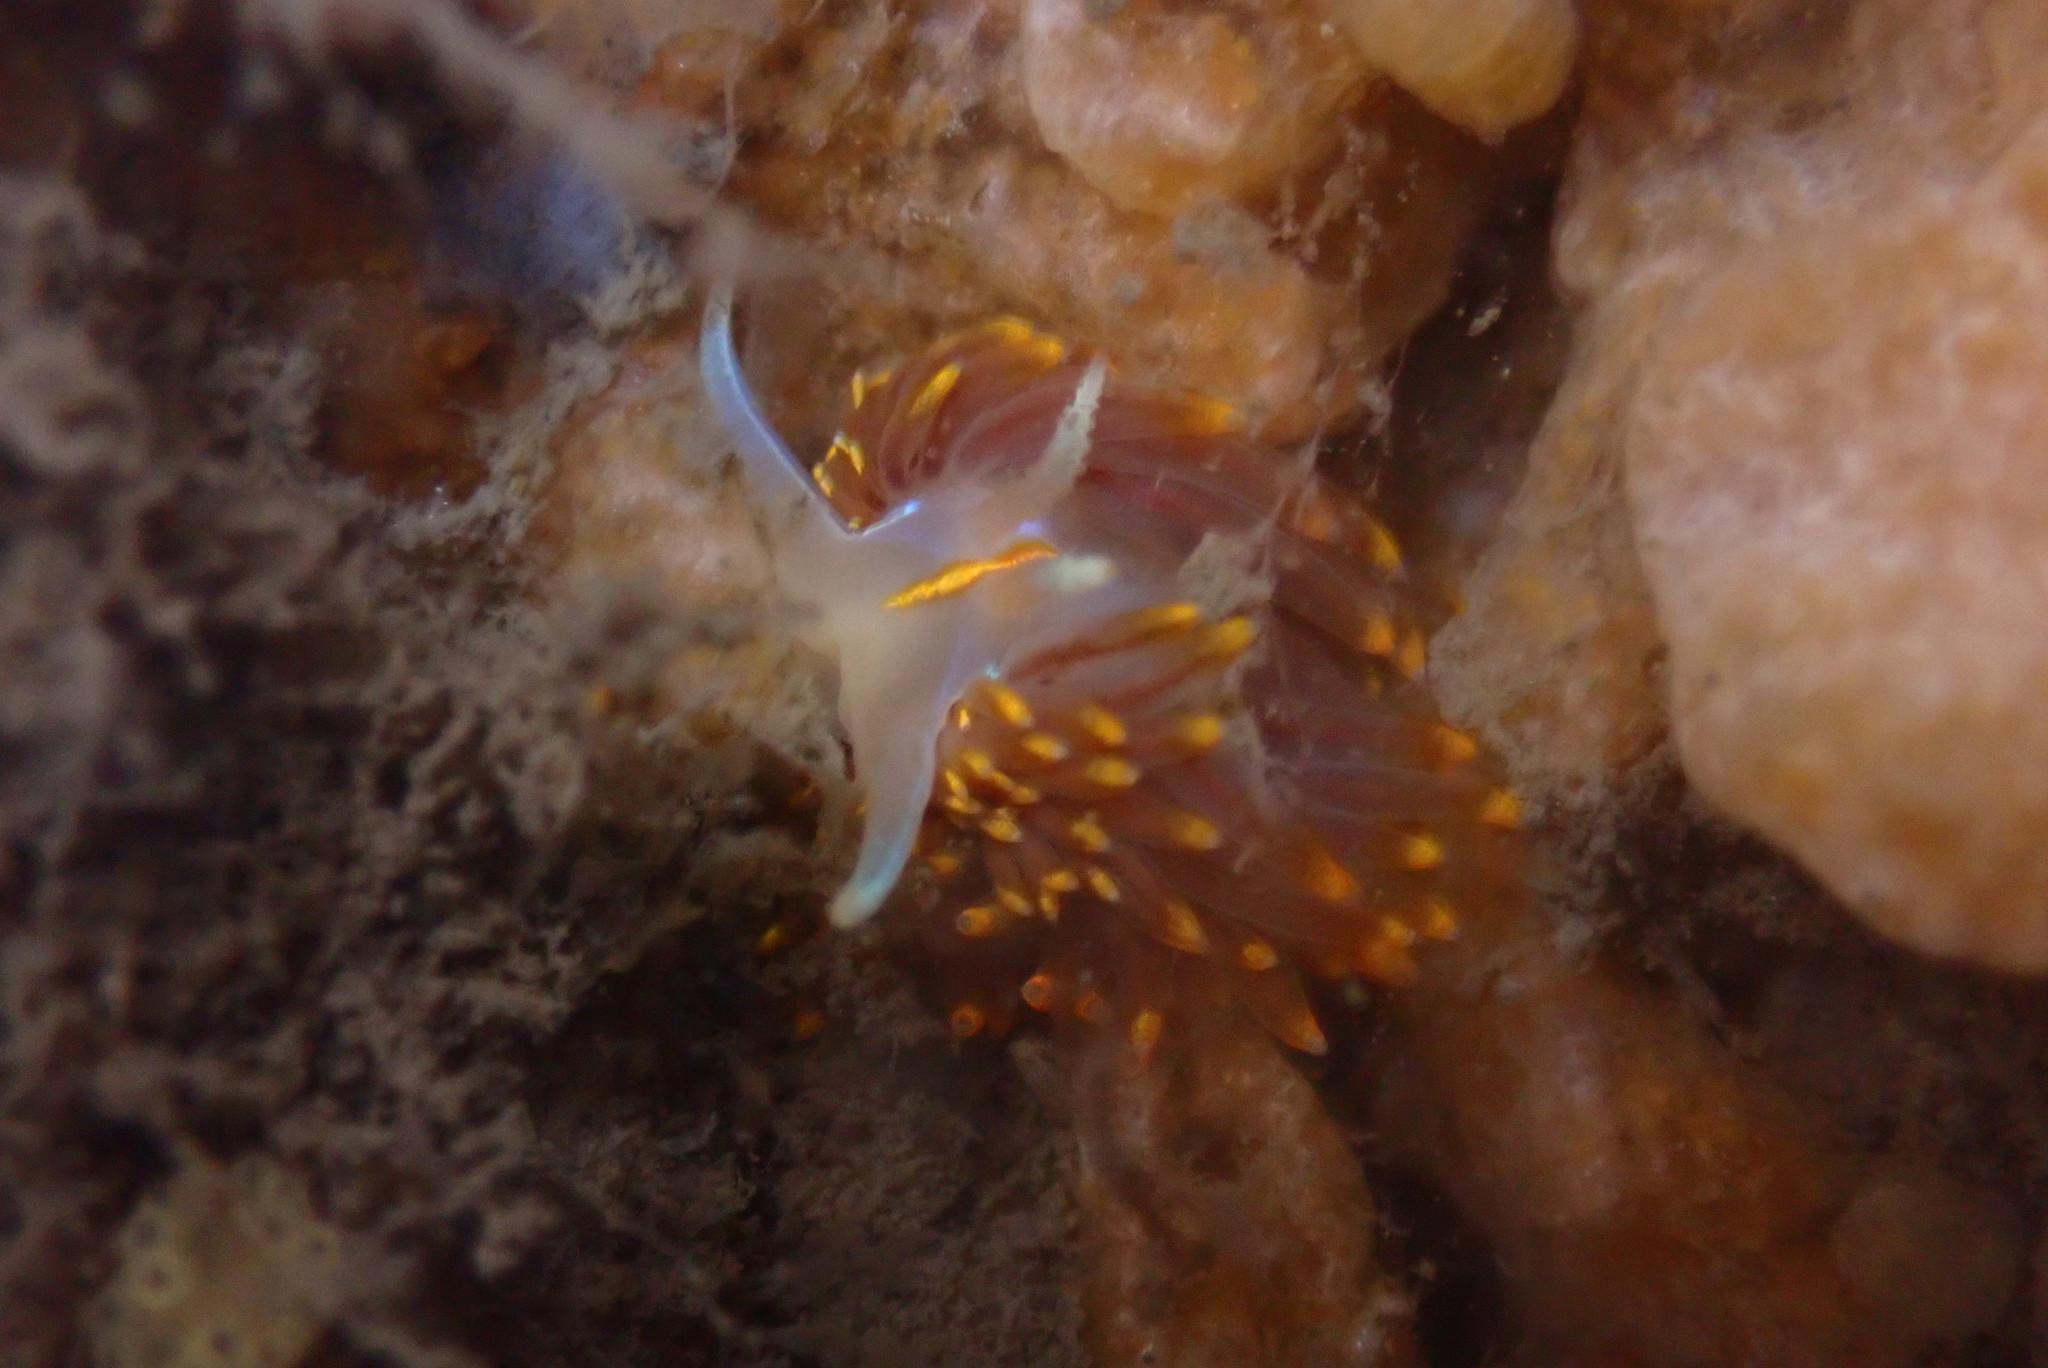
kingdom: Animalia
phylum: Mollusca
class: Gastropoda
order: Nudibranchia
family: Myrrhinidae
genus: Hermissenda
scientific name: Hermissenda opalescens
